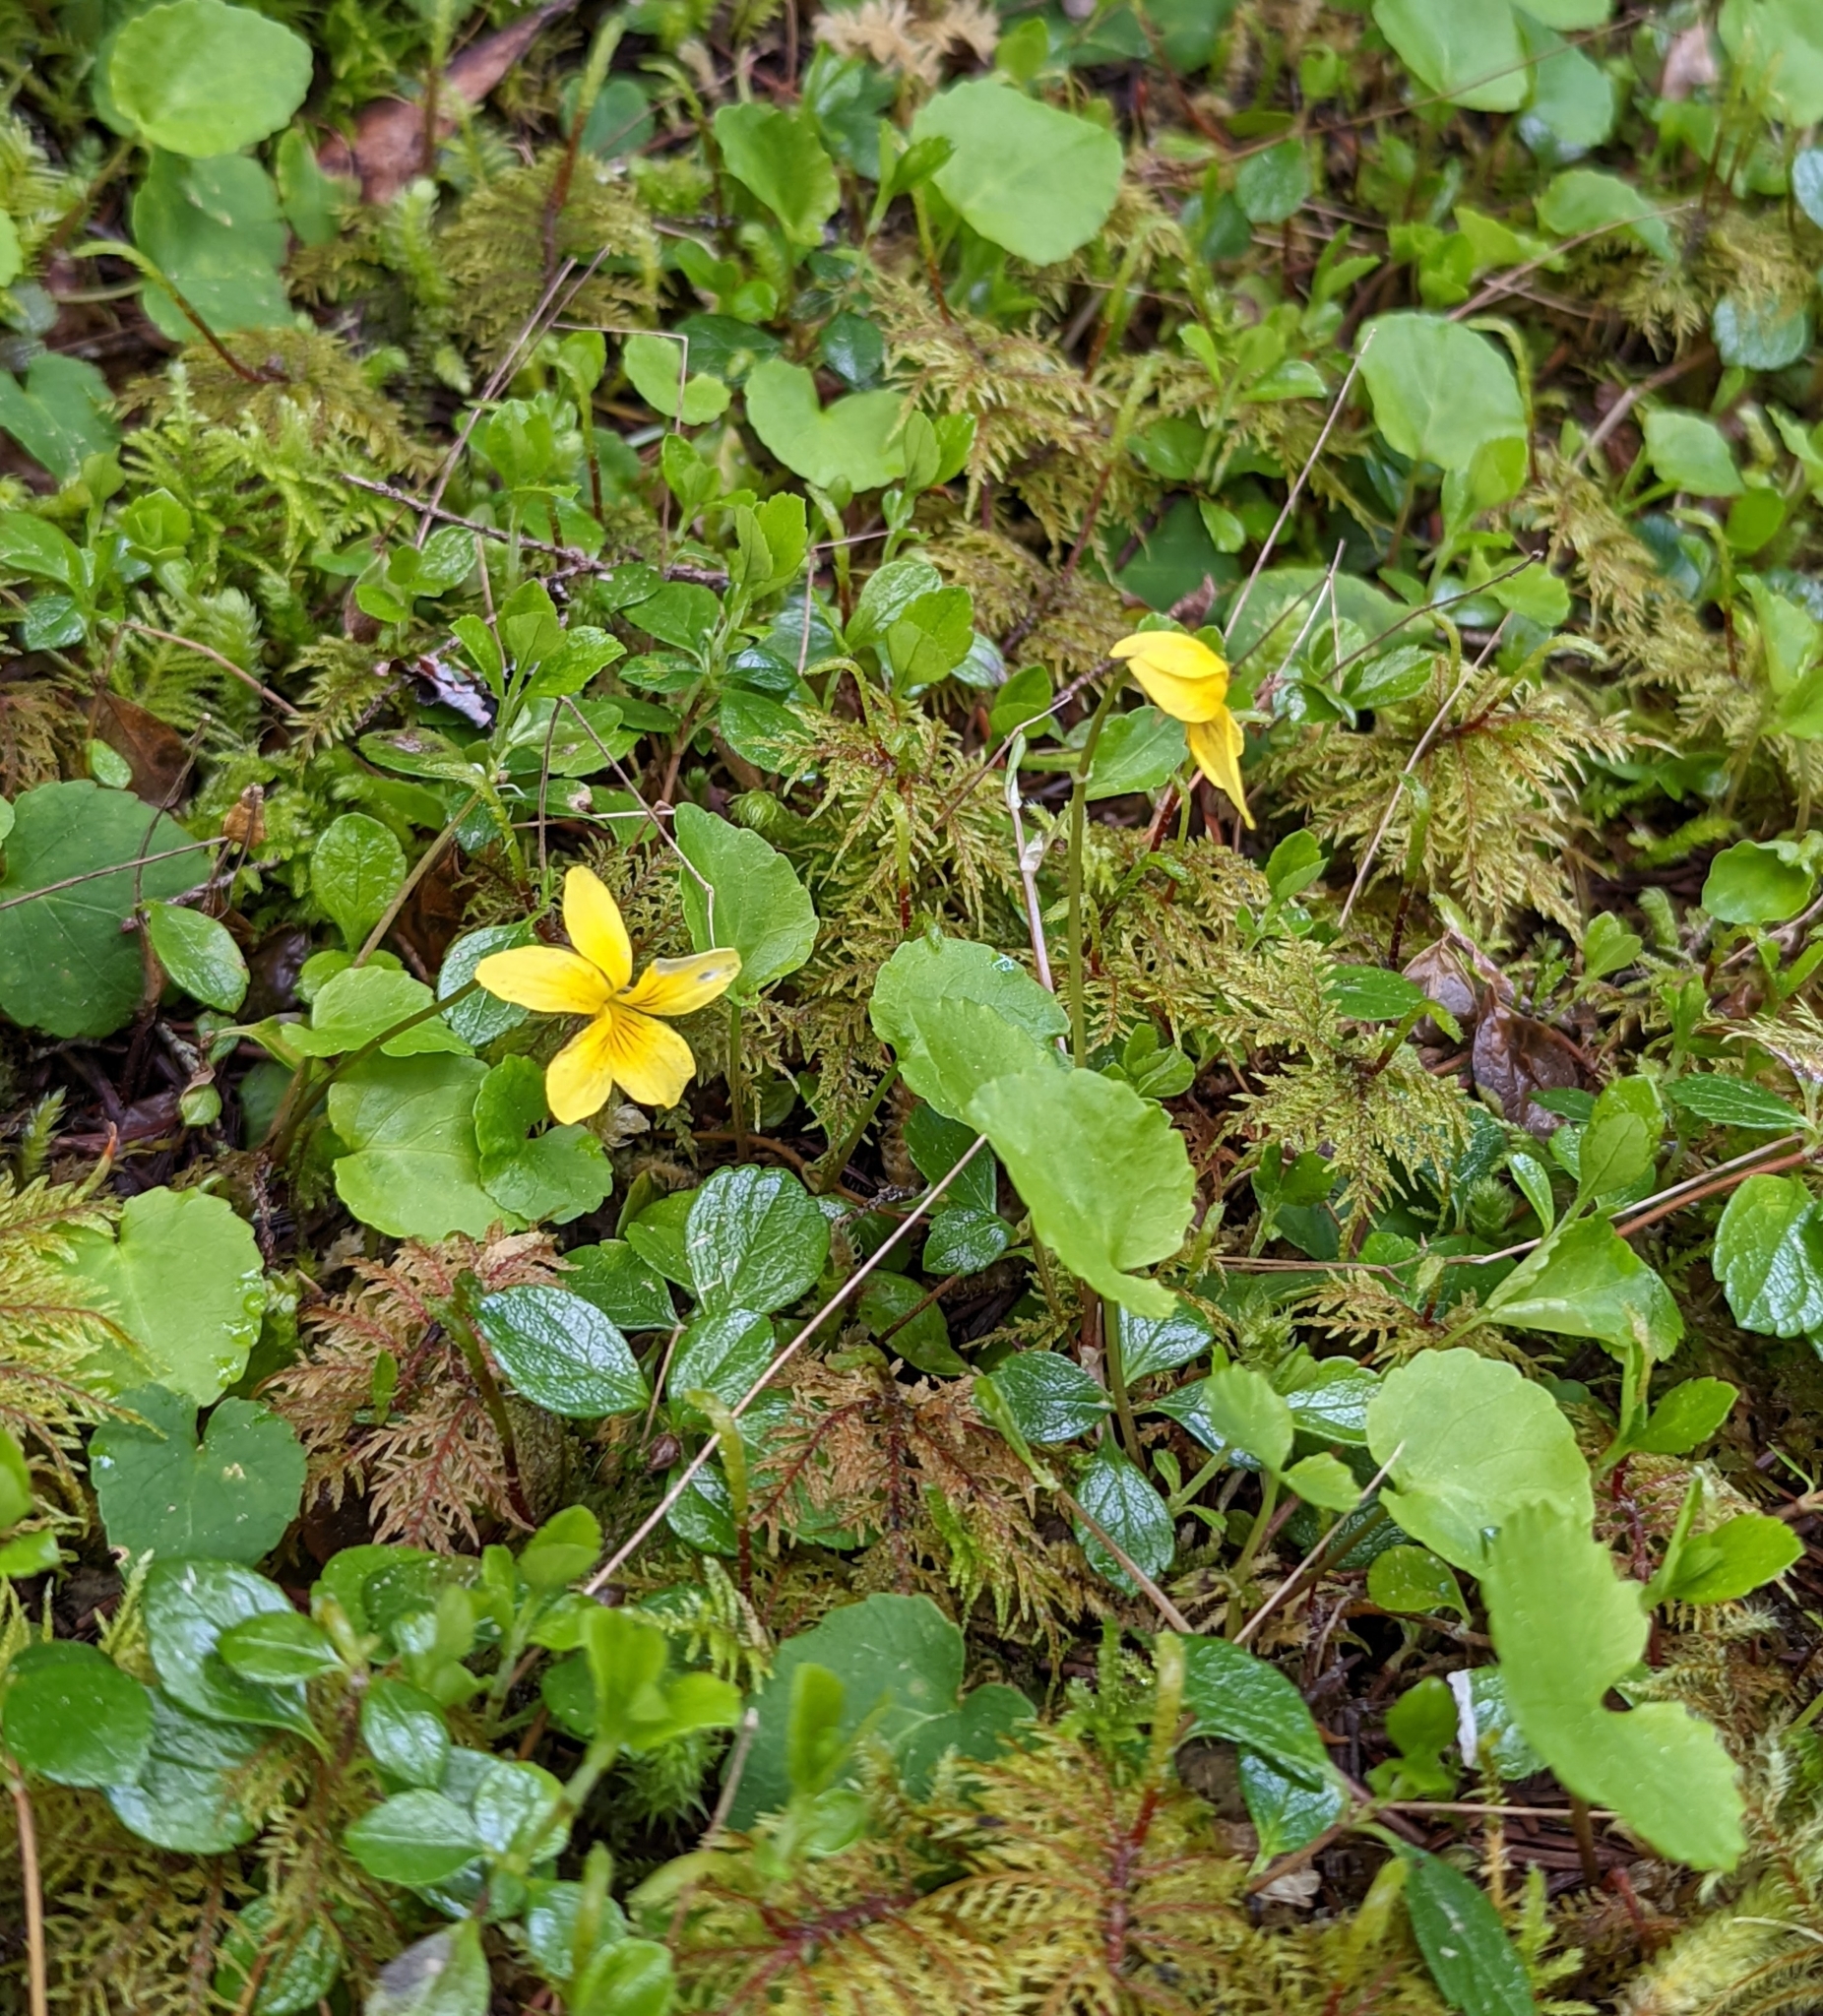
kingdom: Plantae
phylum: Tracheophyta
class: Magnoliopsida
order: Malpighiales
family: Violaceae
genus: Viola
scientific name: Viola sempervirens
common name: Evergreen violet
